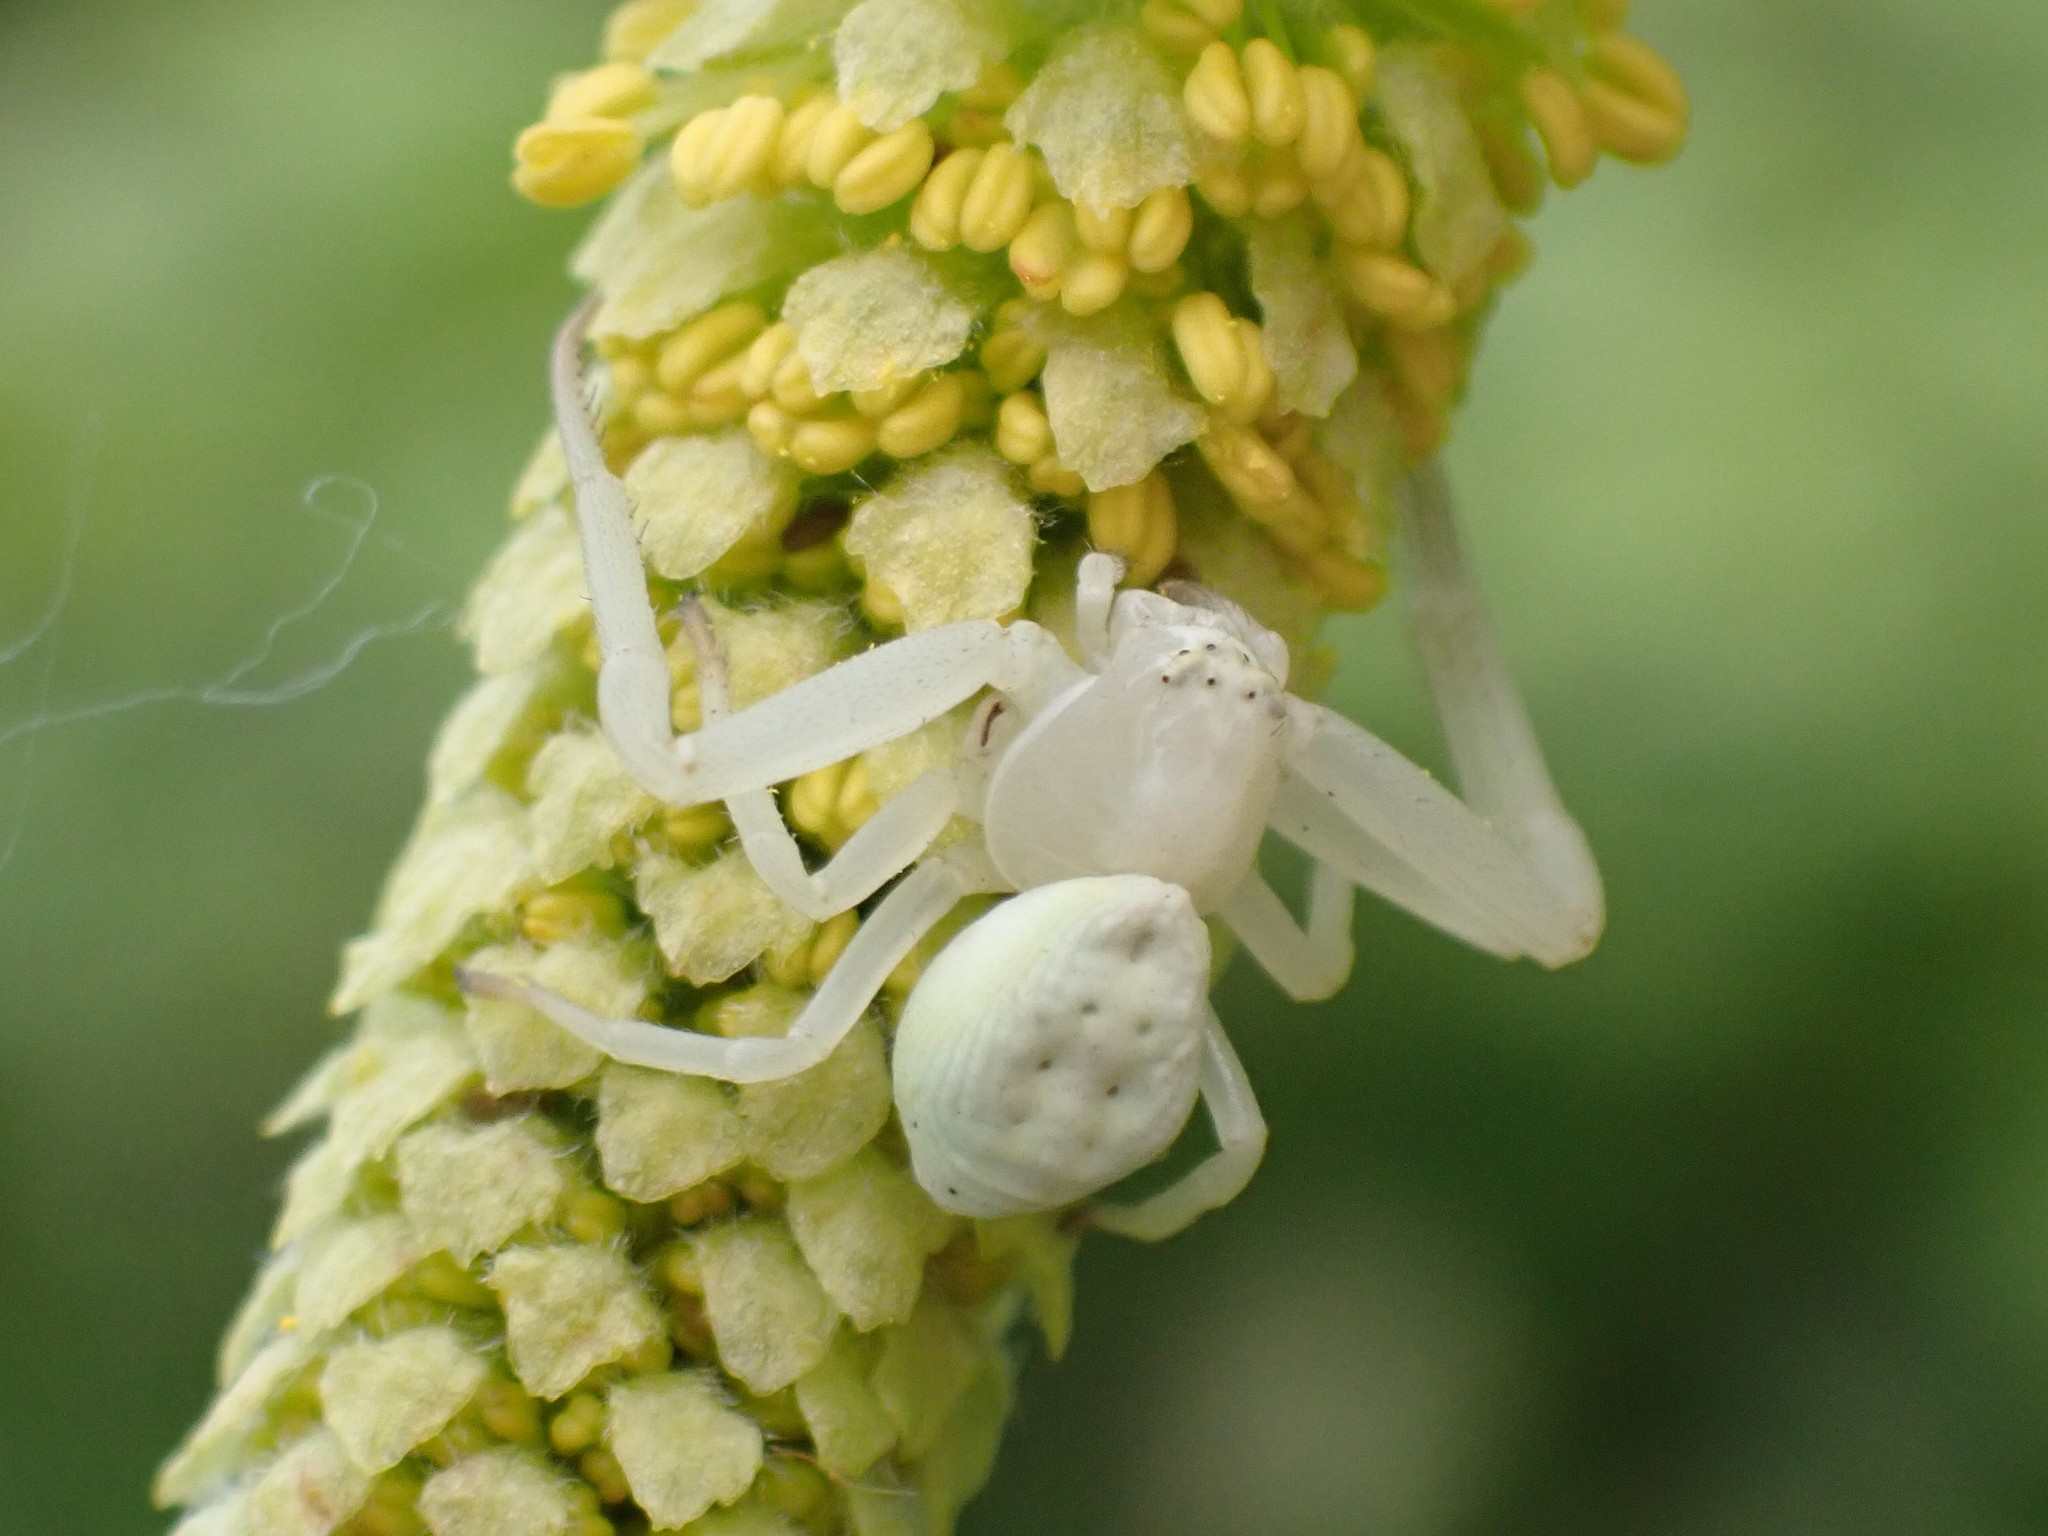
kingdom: Animalia
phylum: Arthropoda
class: Arachnida
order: Araneae
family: Thomisidae
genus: Misumena
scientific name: Misumena vatia
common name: Goldenrod crab spider
